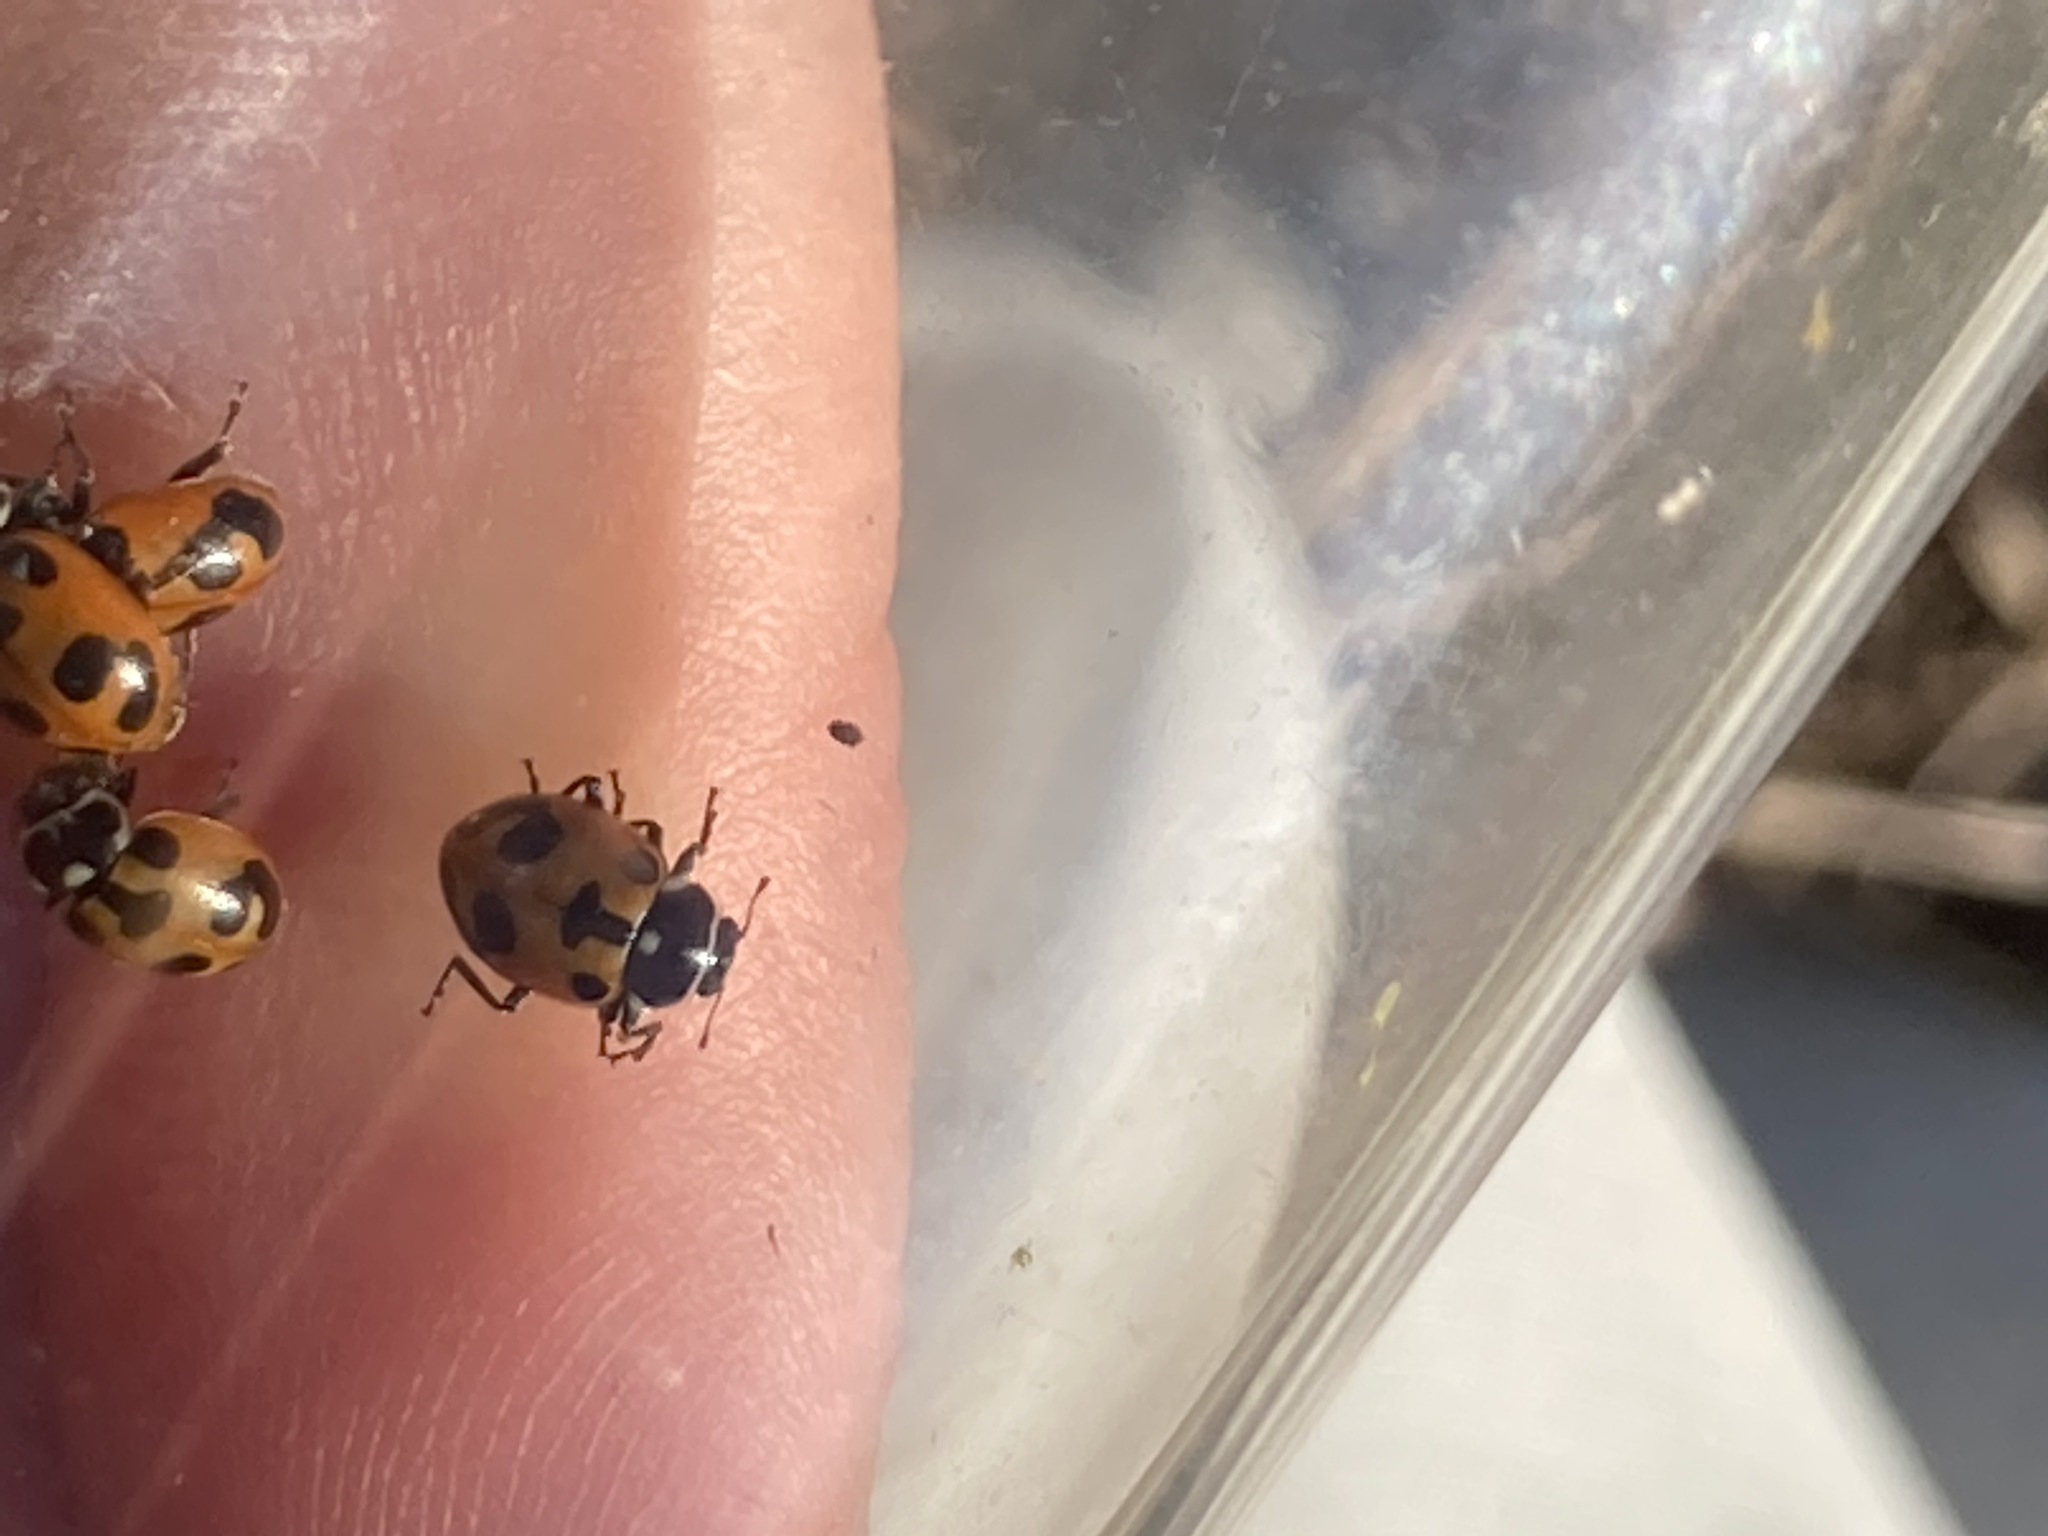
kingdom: Animalia
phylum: Arthropoda
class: Insecta
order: Coleoptera
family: Coccinellidae
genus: Hippodamia
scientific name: Hippodamia parenthesis
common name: Parenthesis lady beetle
